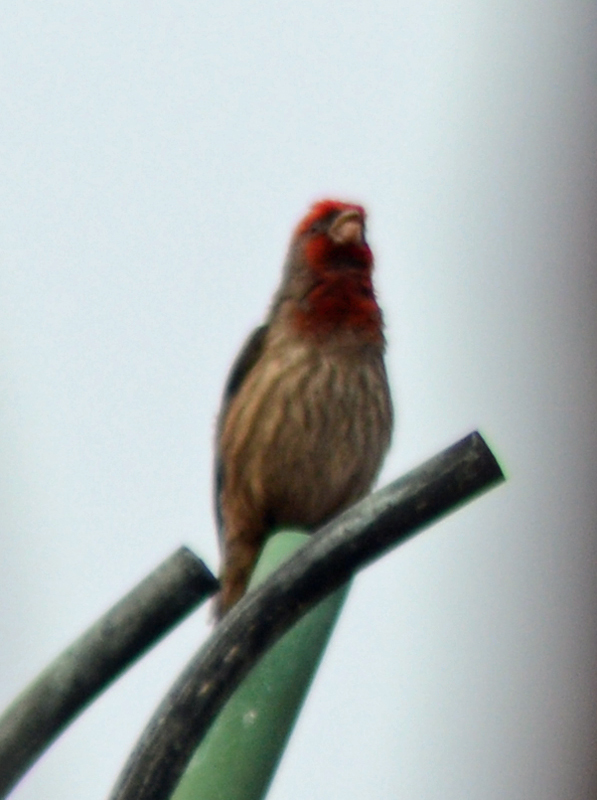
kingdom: Animalia
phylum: Chordata
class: Aves
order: Passeriformes
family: Fringillidae
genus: Haemorhous
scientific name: Haemorhous mexicanus
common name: House finch
